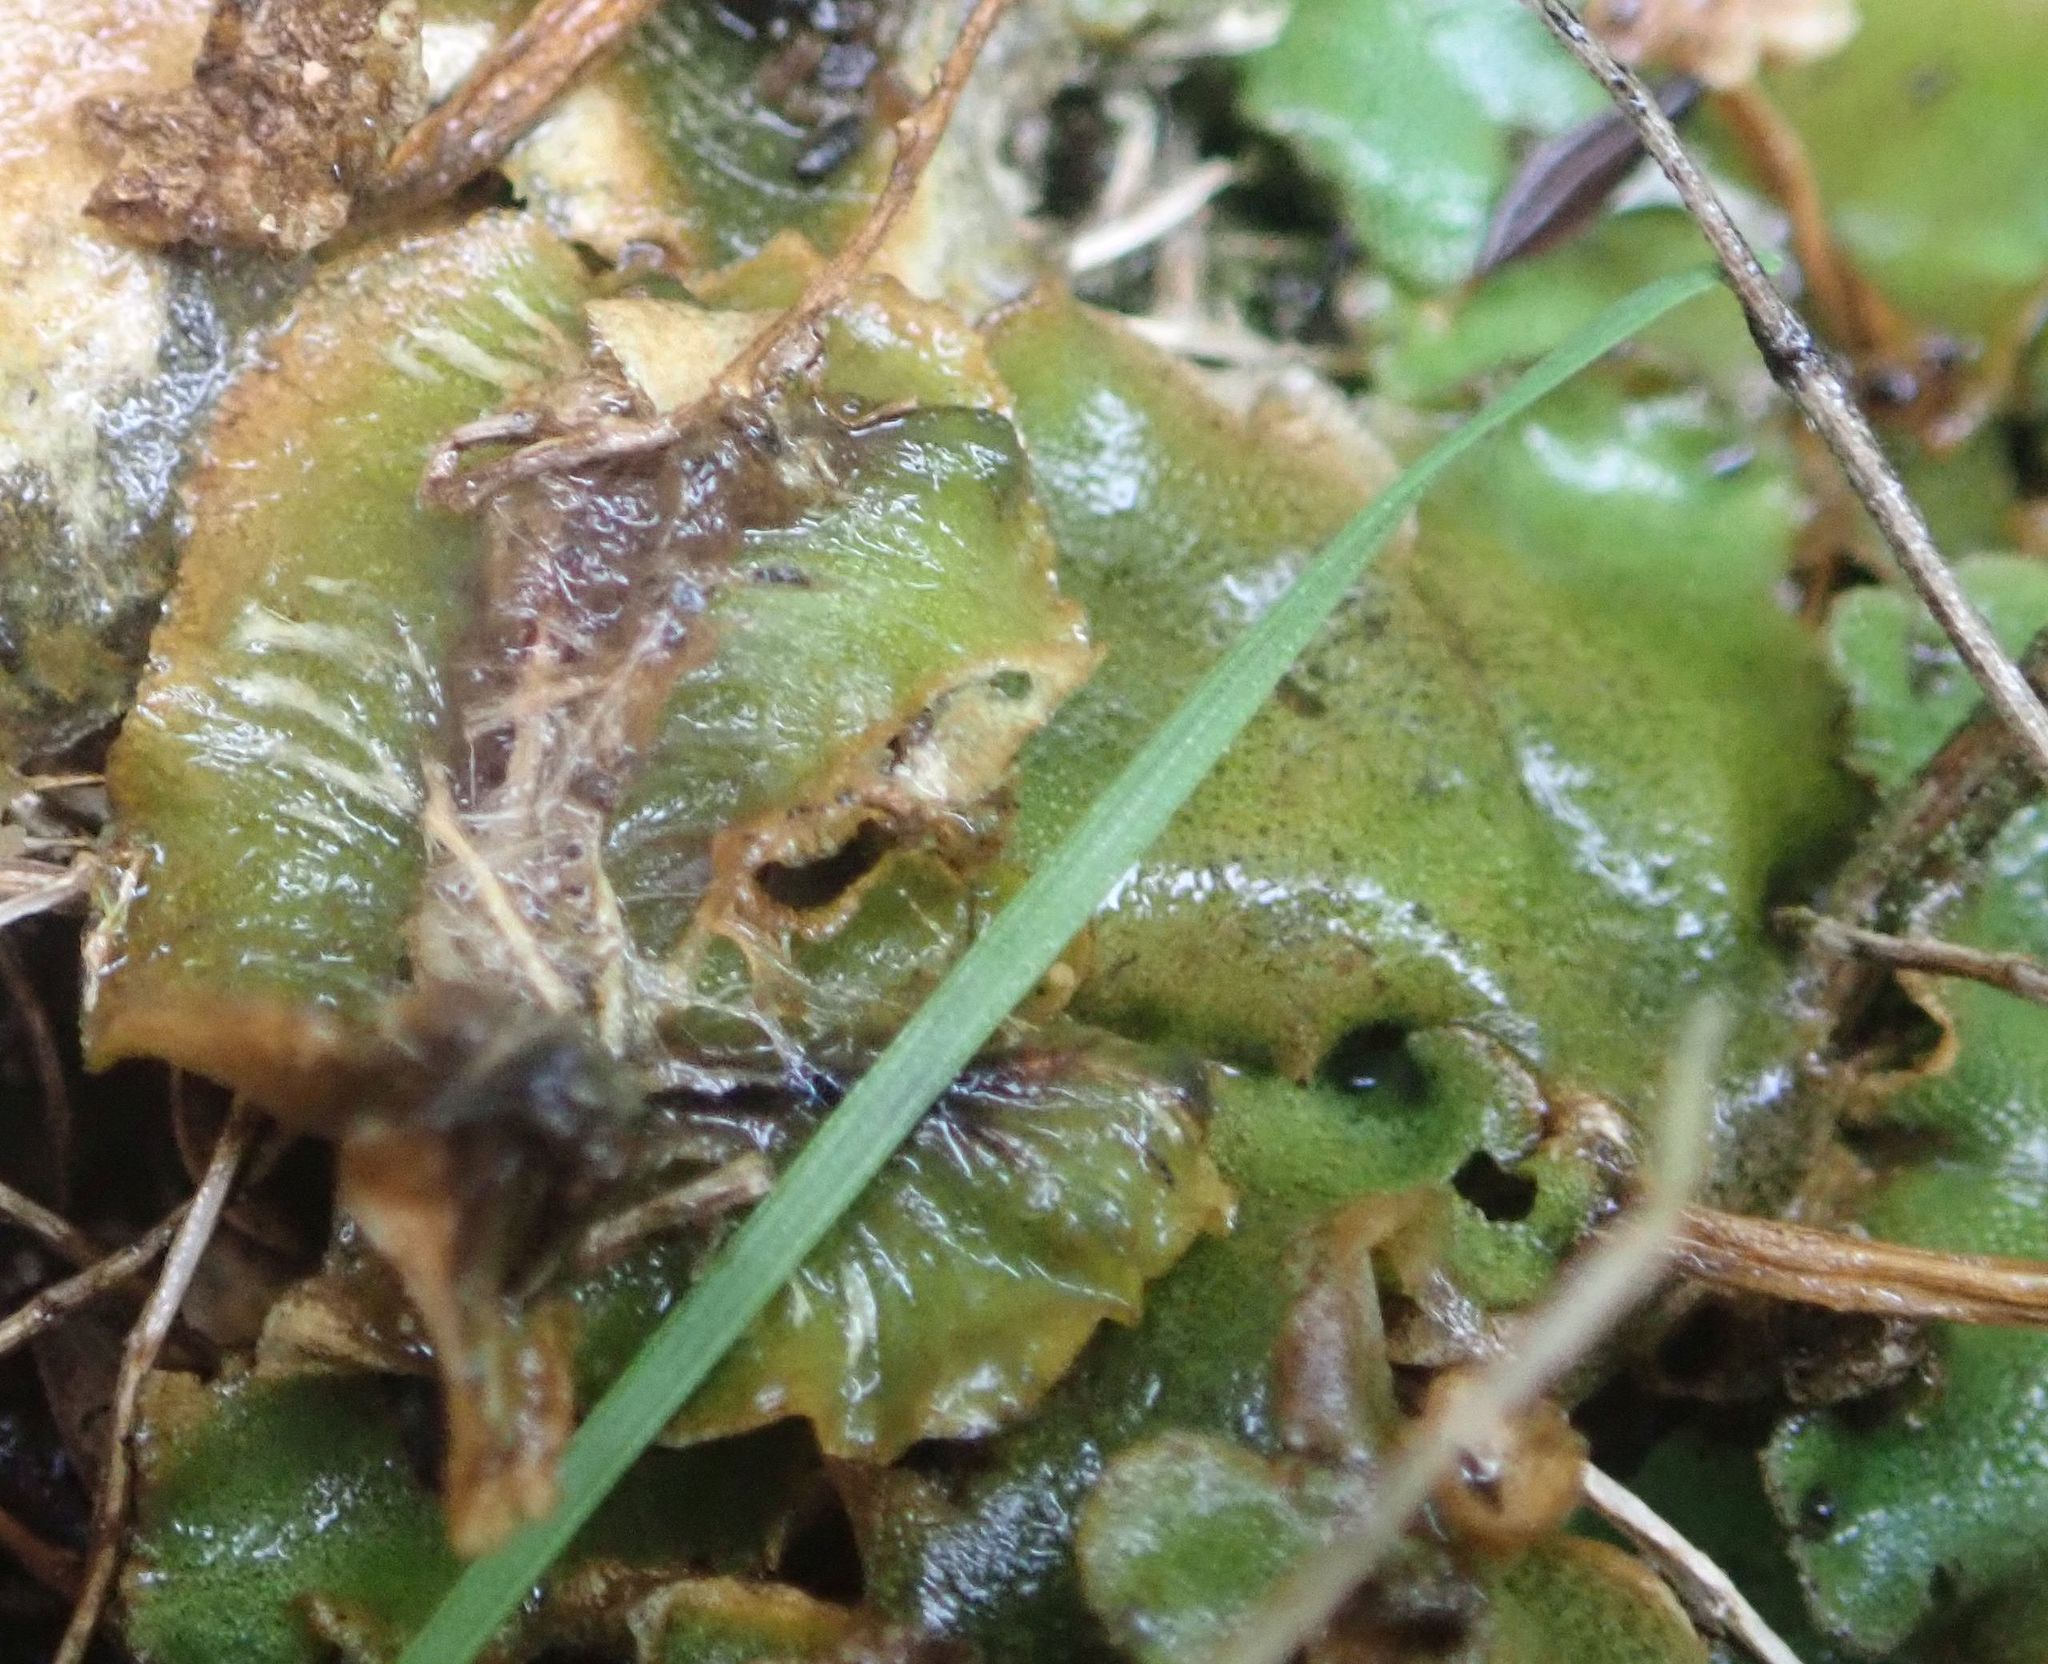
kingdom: Plantae
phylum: Marchantiophyta
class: Marchantiopsida
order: Marchantiales
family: Marchantiaceae
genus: Marchantia
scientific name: Marchantia berteroana
